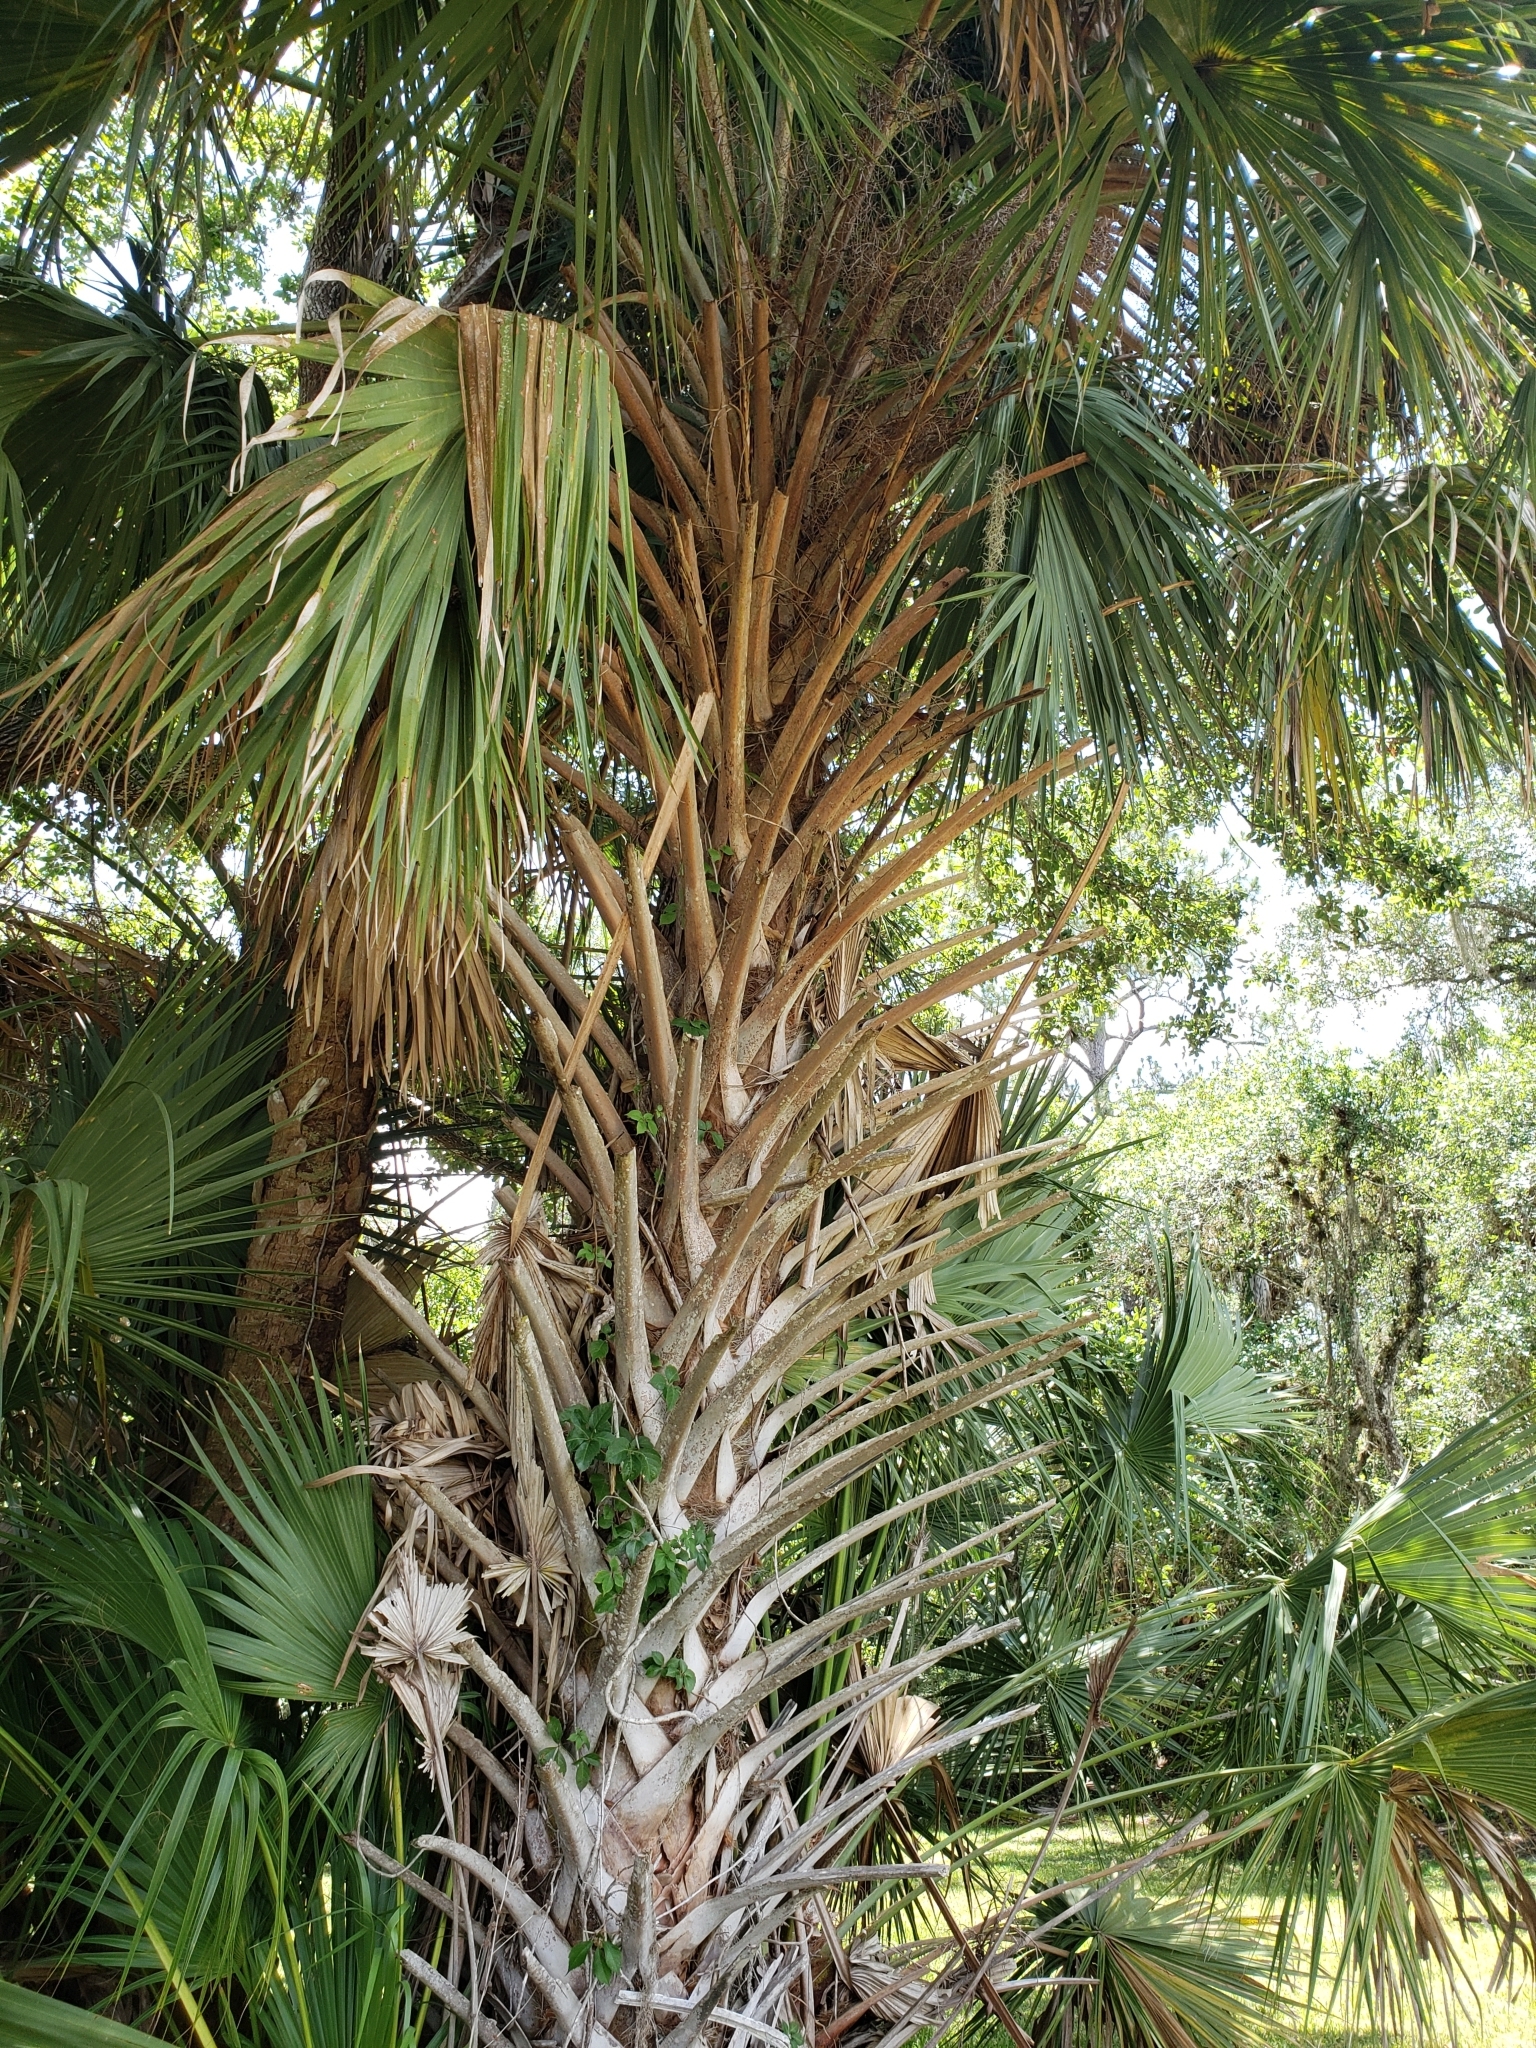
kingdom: Plantae
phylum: Tracheophyta
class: Liliopsida
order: Arecales
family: Arecaceae
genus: Sabal
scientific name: Sabal palmetto
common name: Blue palmetto
